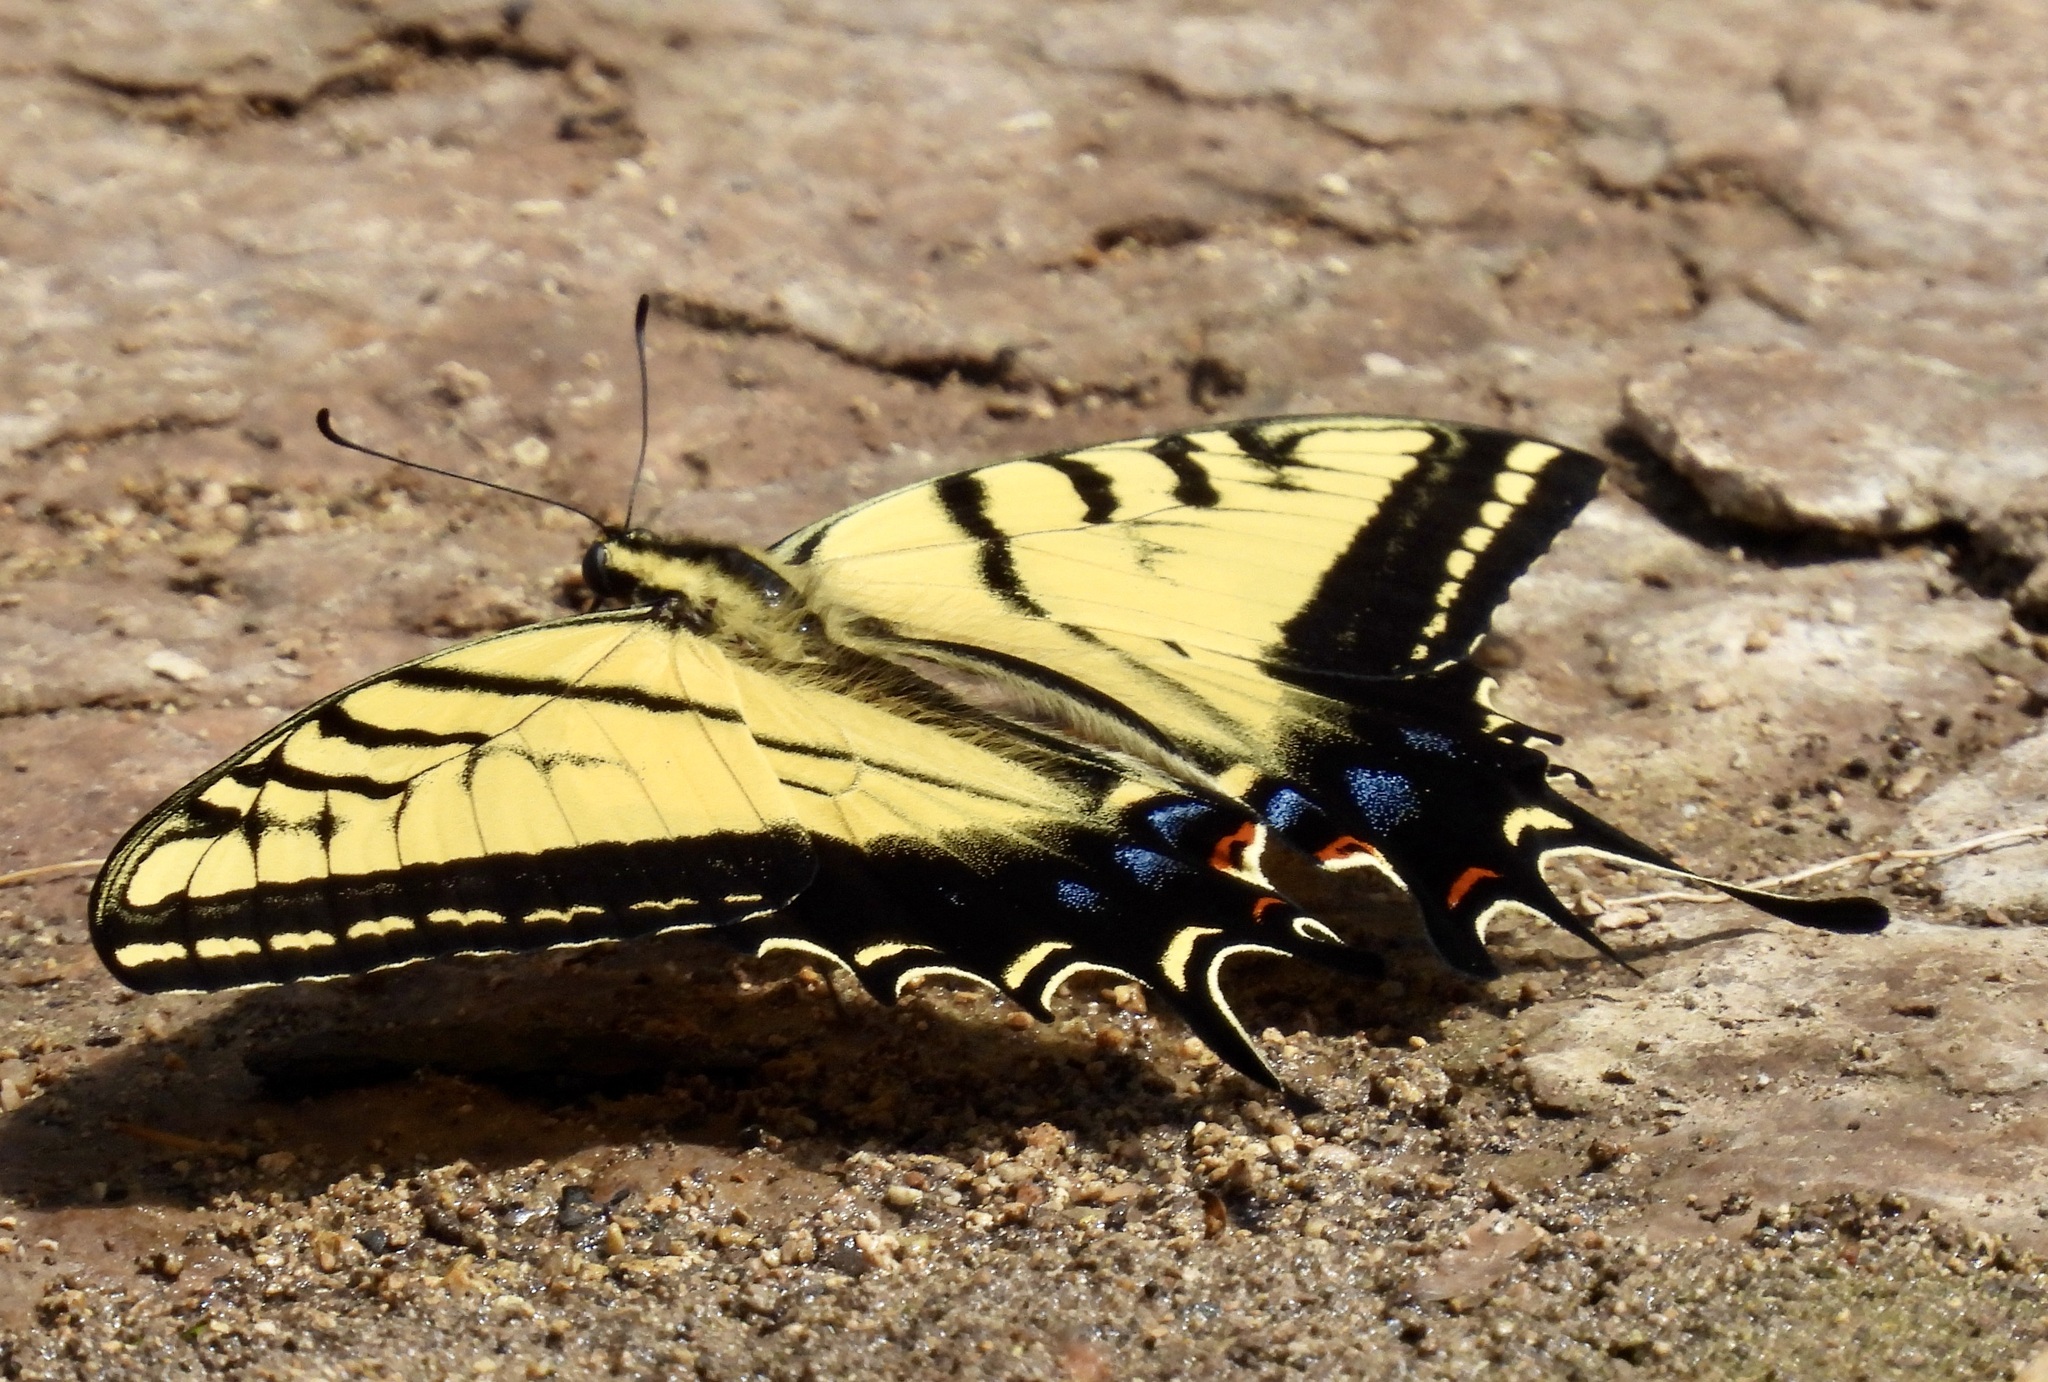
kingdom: Animalia
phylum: Arthropoda
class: Insecta
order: Lepidoptera
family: Papilionidae
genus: Papilio
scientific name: Papilio multicaudata
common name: Two-tailed tiger swallowtail
